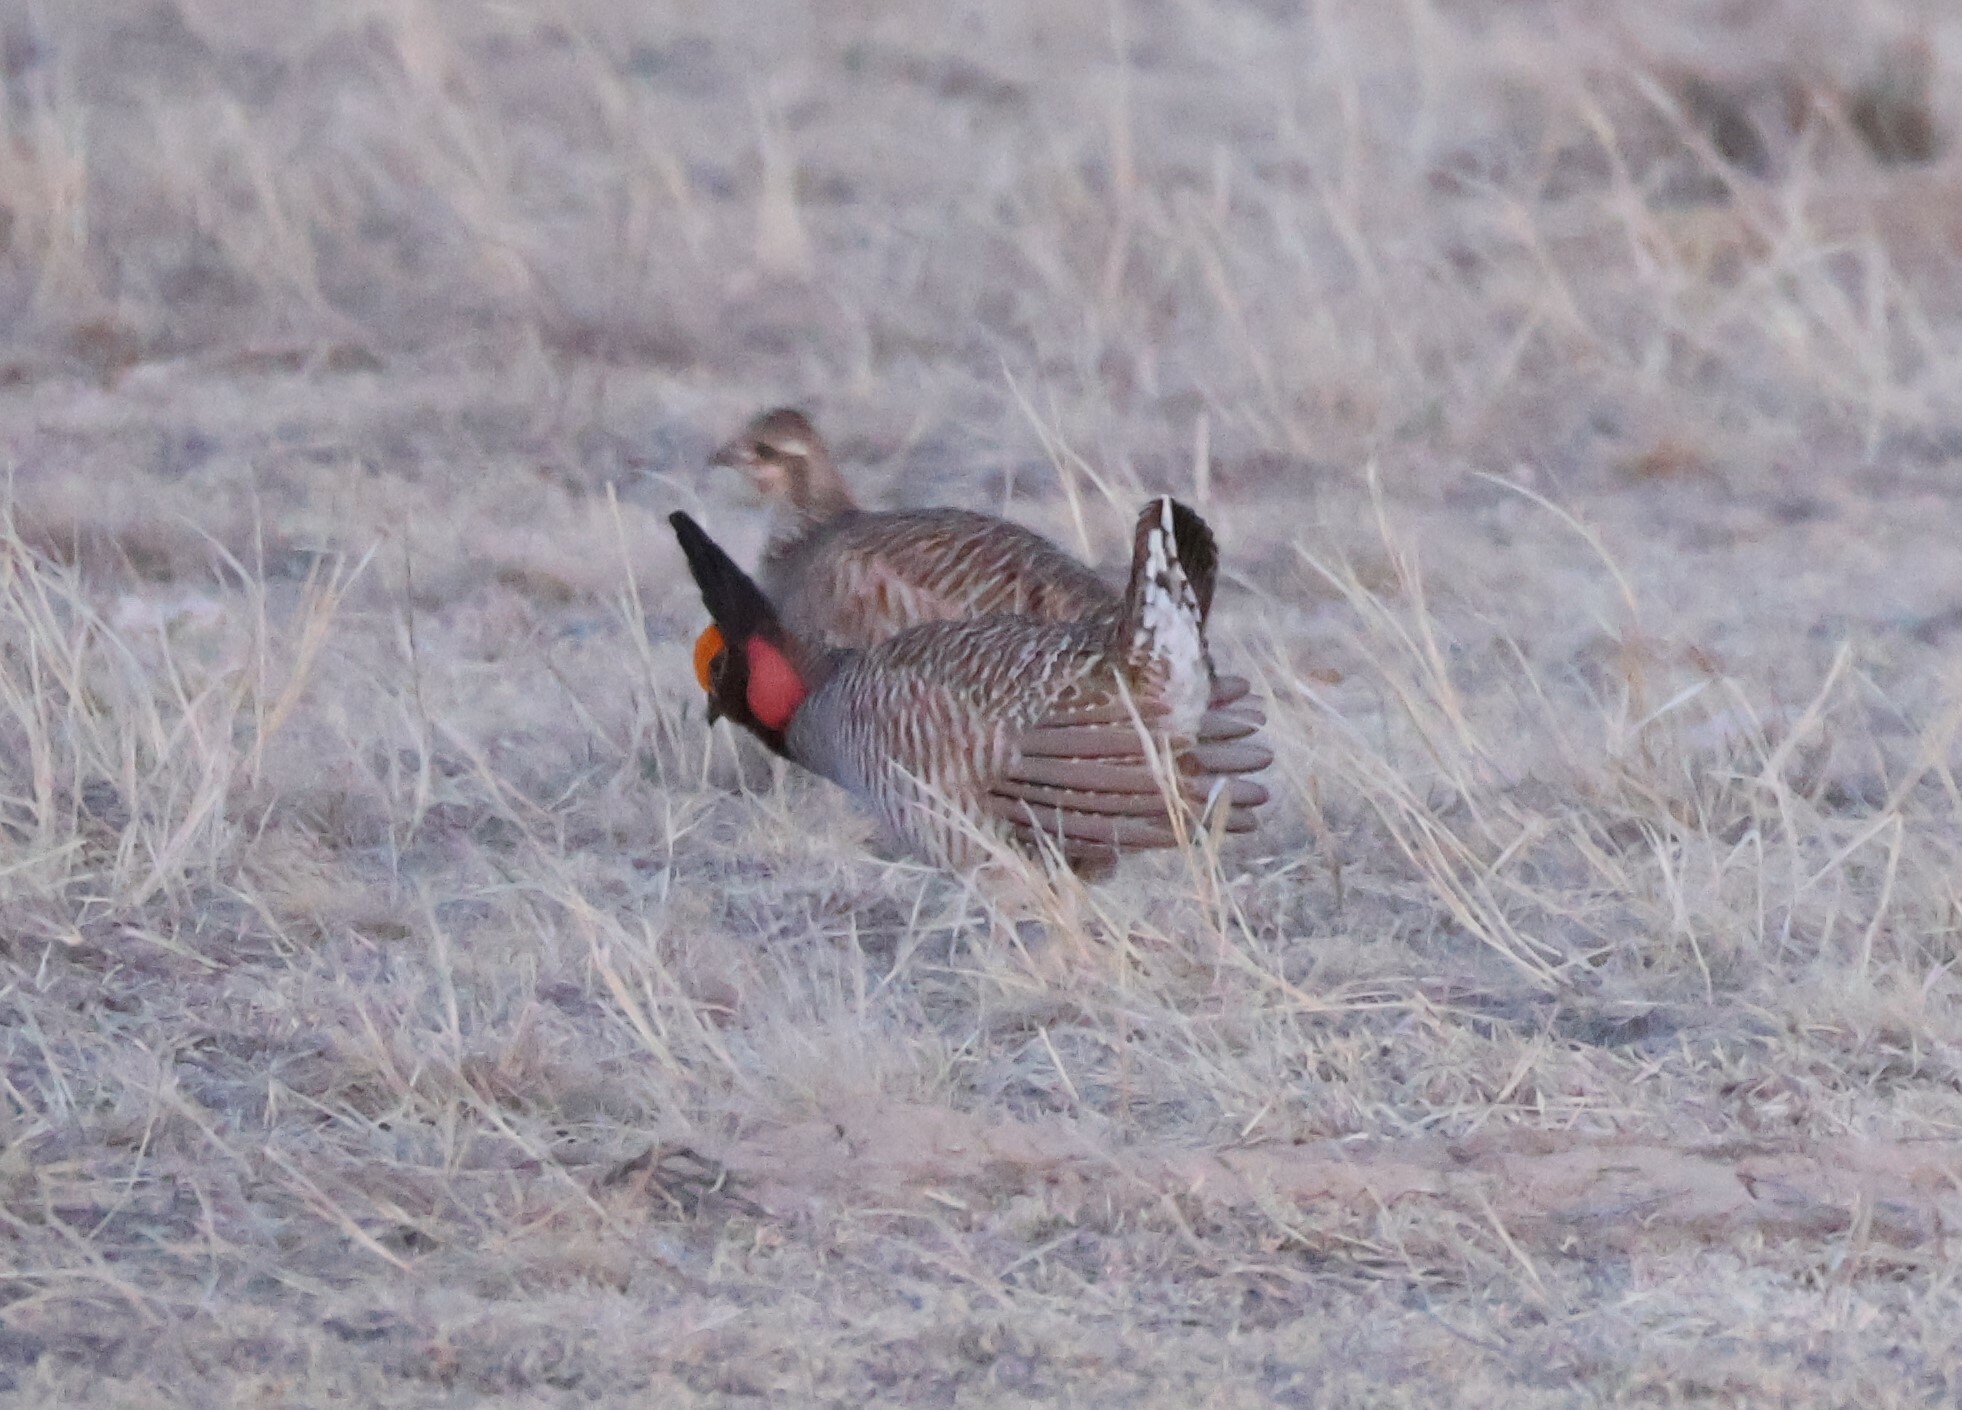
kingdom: Animalia
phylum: Chordata
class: Aves
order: Galliformes
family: Phasianidae
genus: Tympanuchus
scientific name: Tympanuchus pallidicinctus
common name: Lesser prairie chicken
